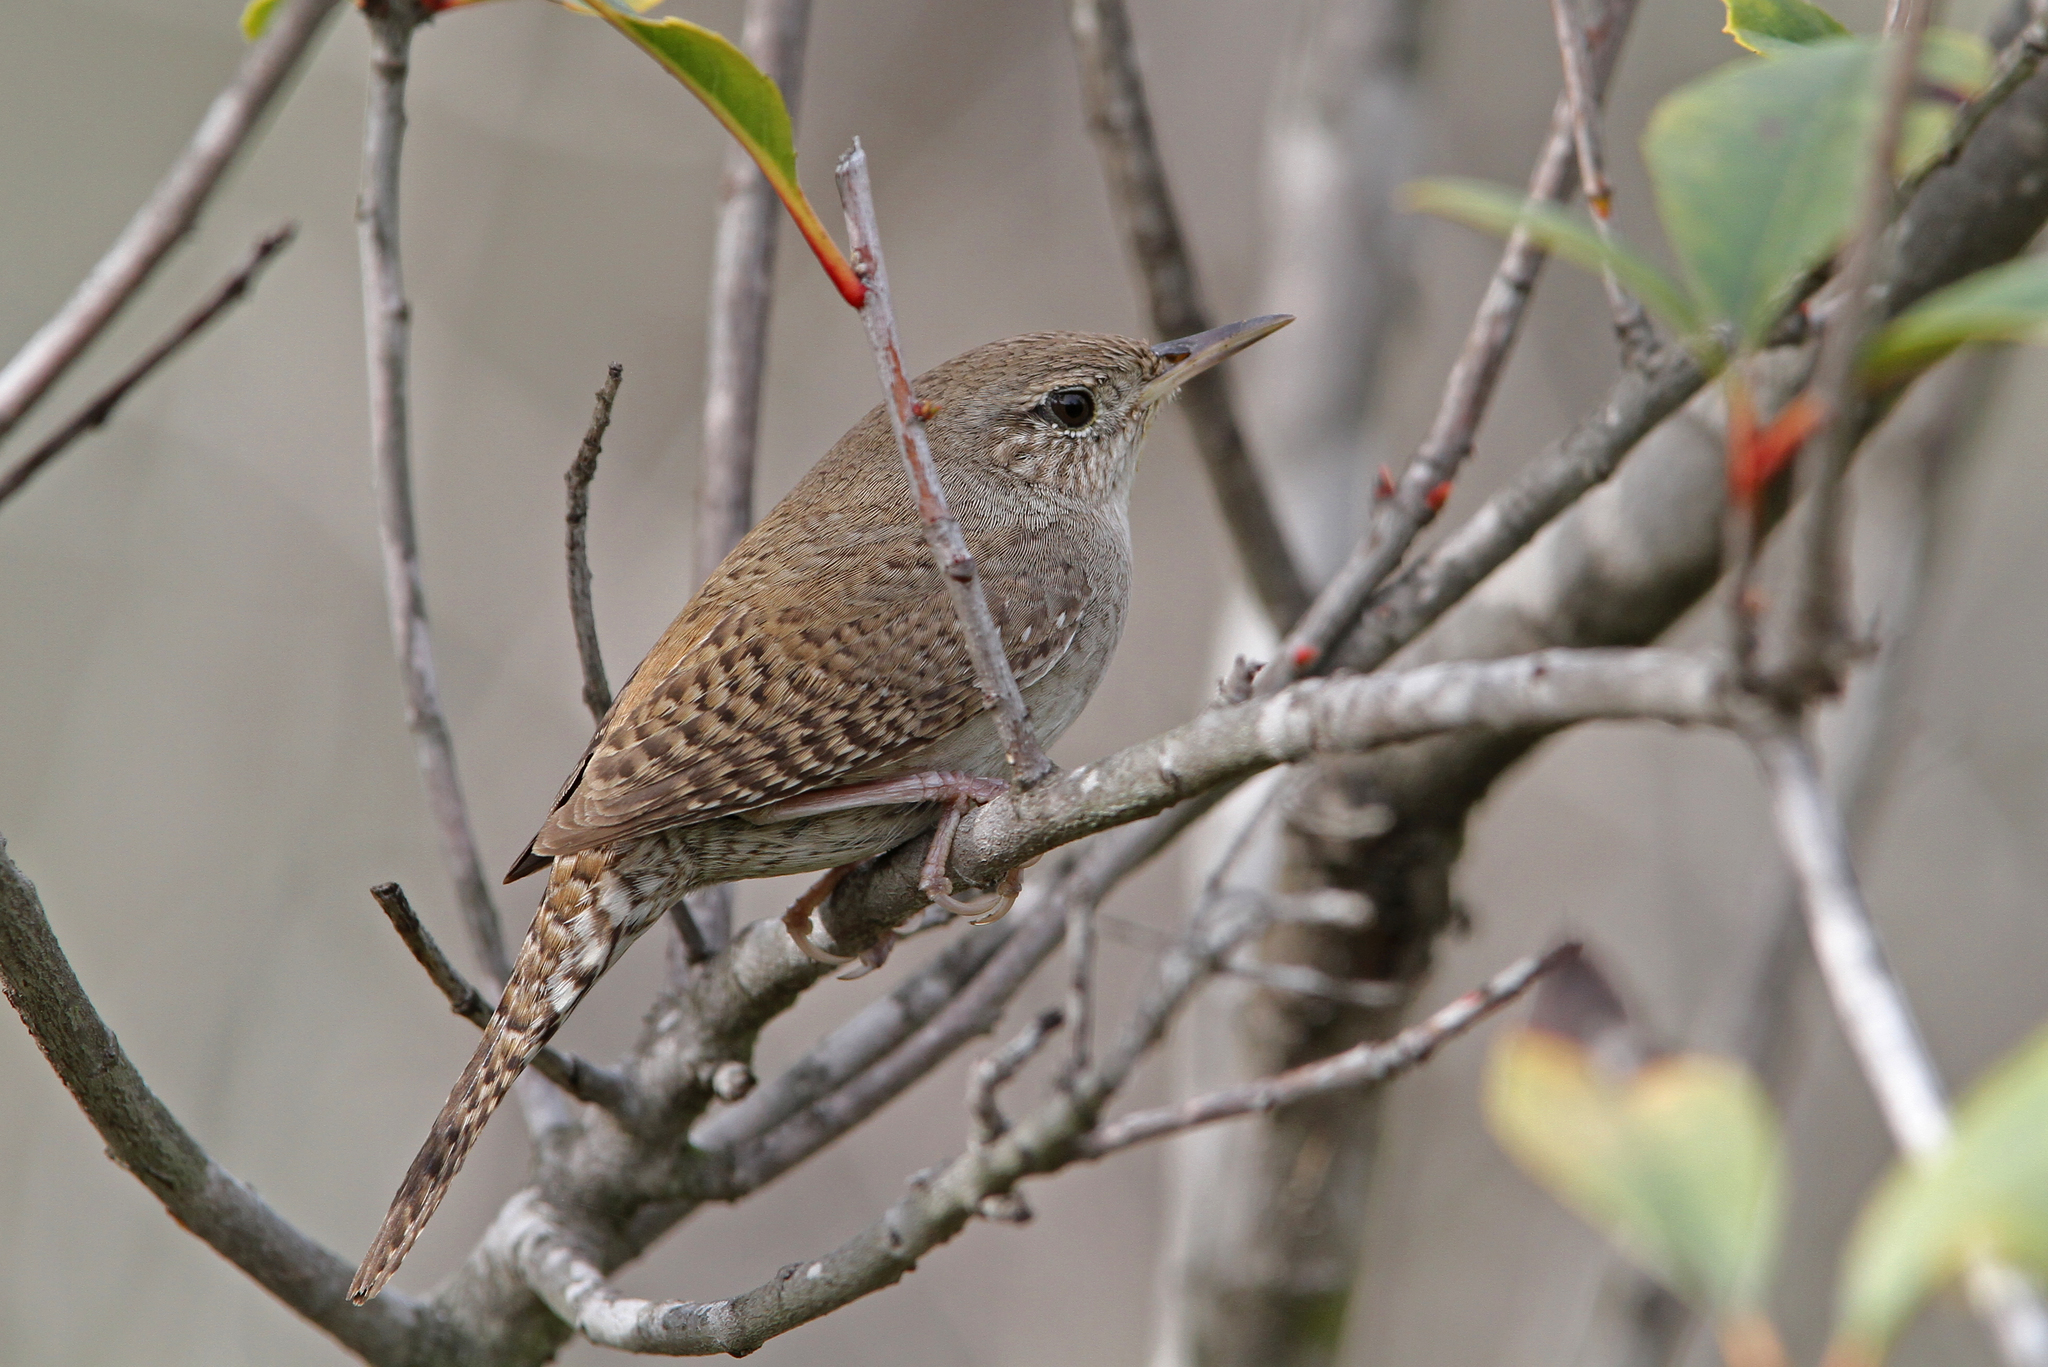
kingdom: Animalia
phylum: Chordata
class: Aves
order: Passeriformes
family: Troglodytidae
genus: Troglodytes
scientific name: Troglodytes aedon
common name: House wren
